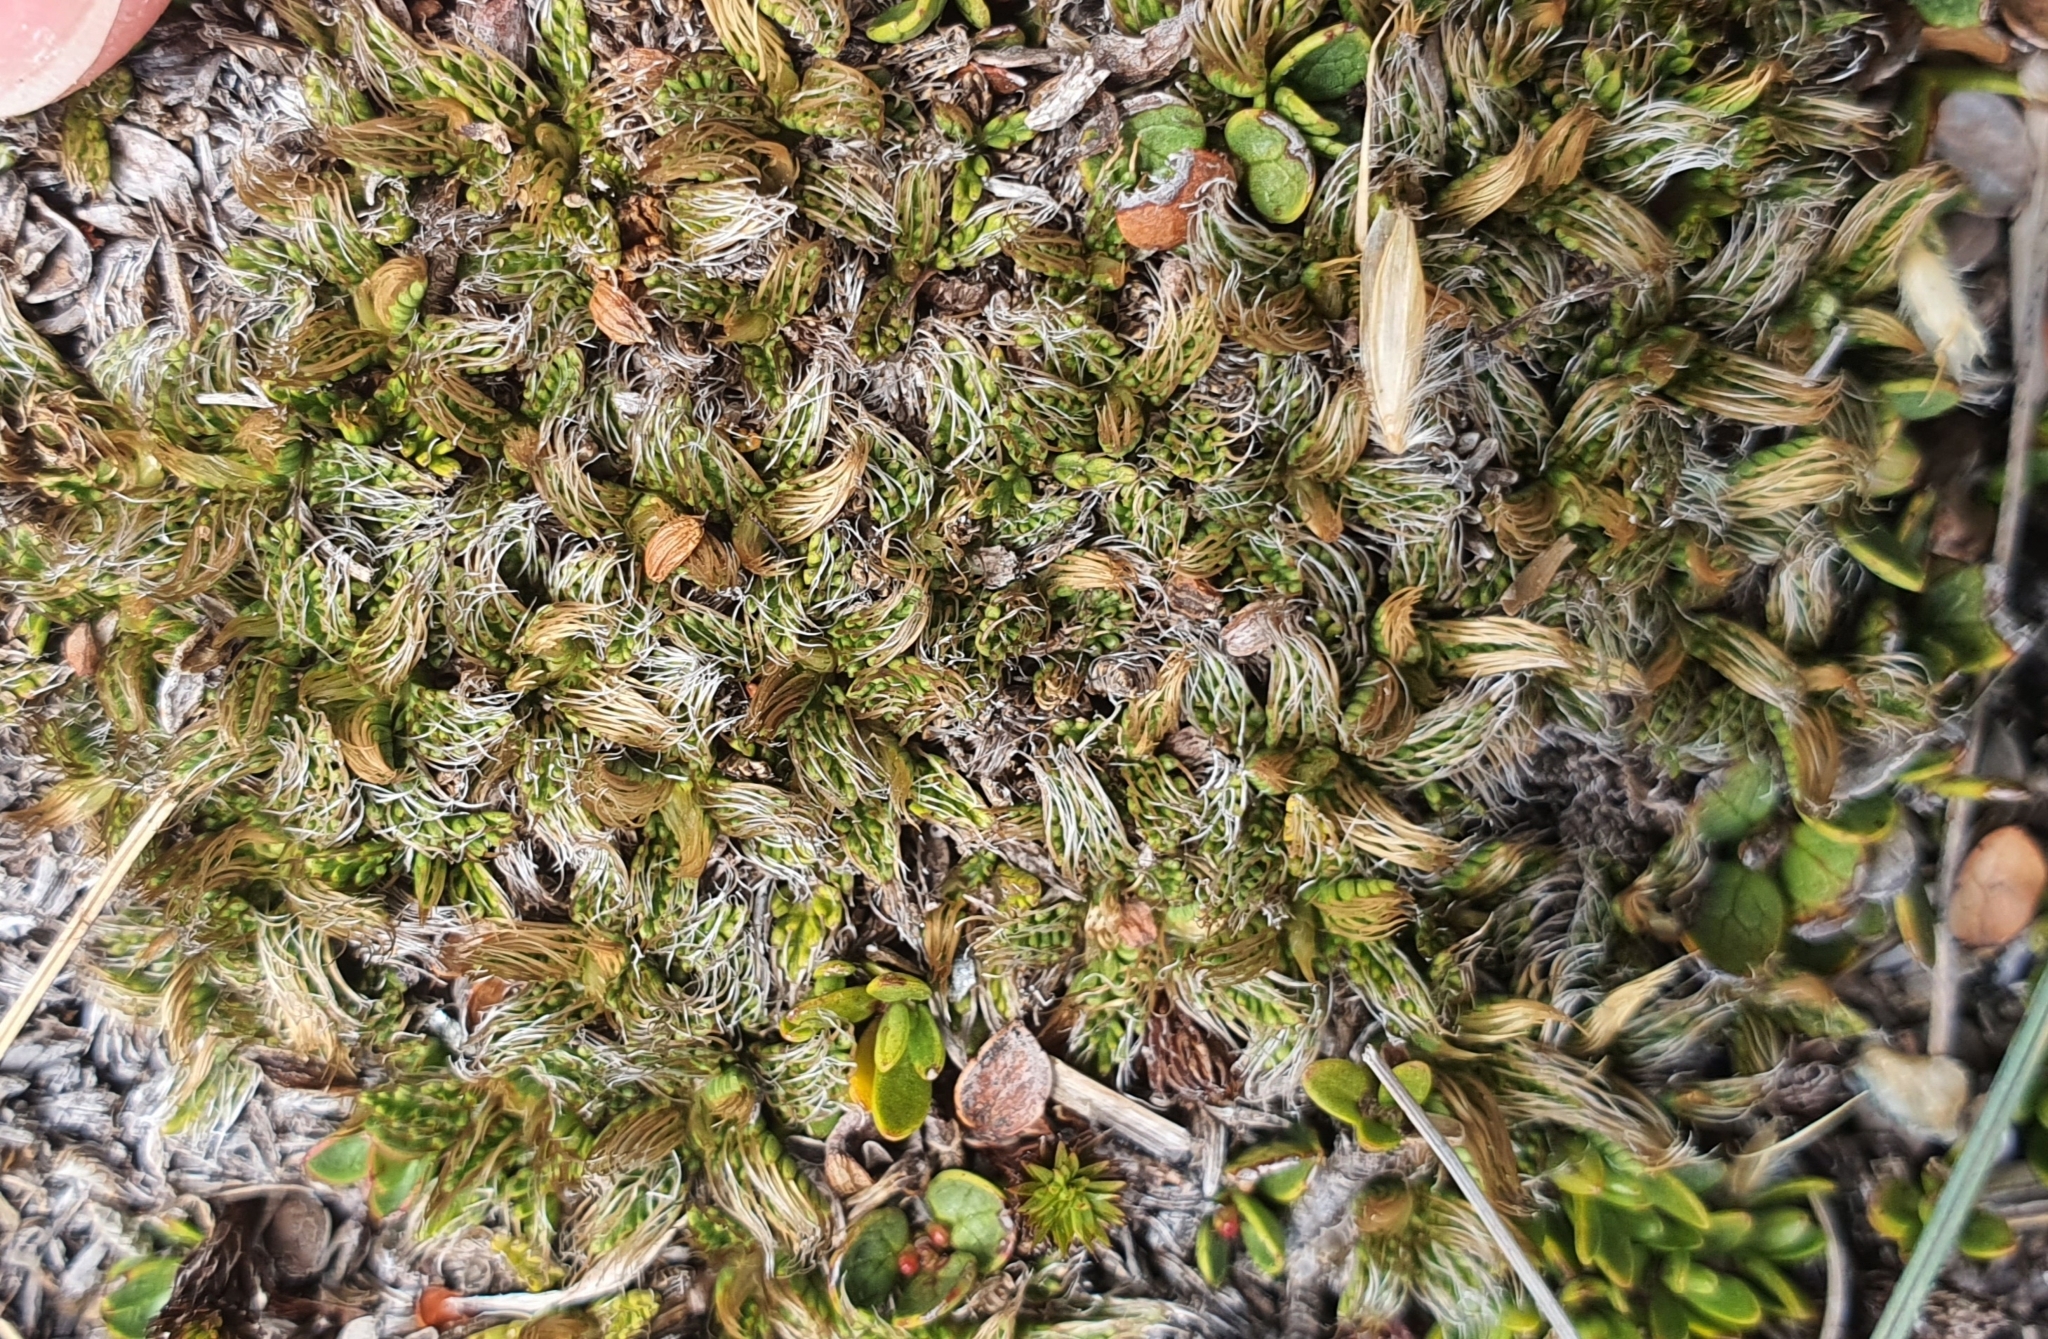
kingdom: Plantae
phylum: Tracheophyta
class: Magnoliopsida
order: Apiales
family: Apiaceae
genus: Anisotome
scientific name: Anisotome imbricata
